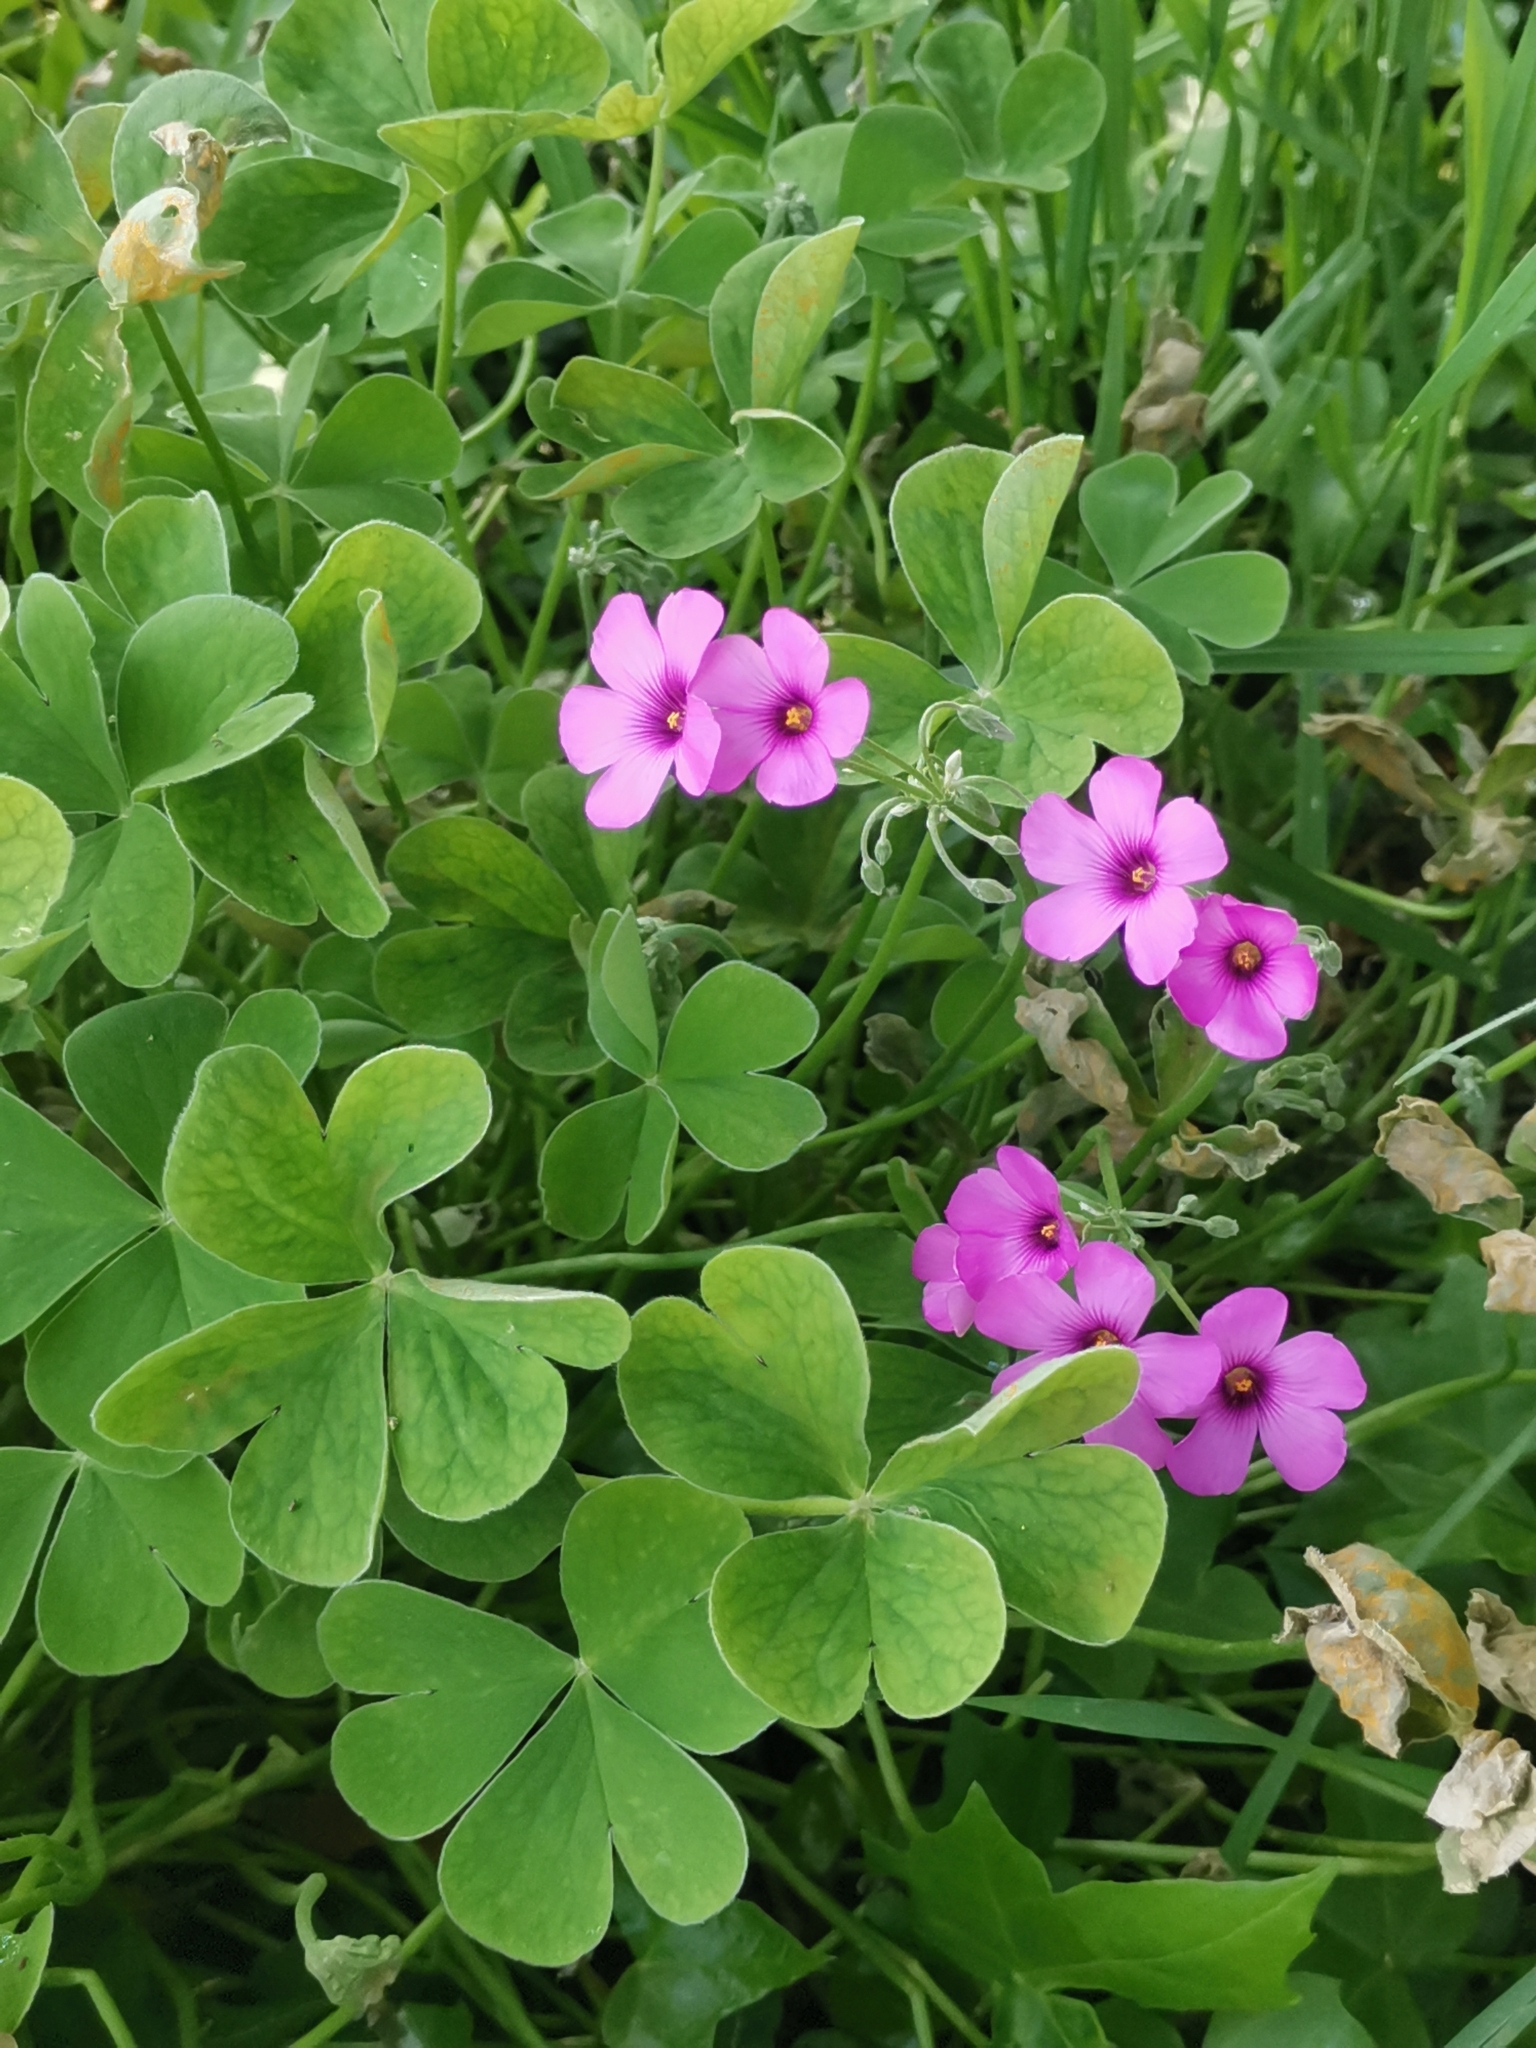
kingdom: Plantae
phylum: Tracheophyta
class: Magnoliopsida
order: Oxalidales
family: Oxalidaceae
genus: Oxalis
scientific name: Oxalis articulata
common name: Pink-sorrel
